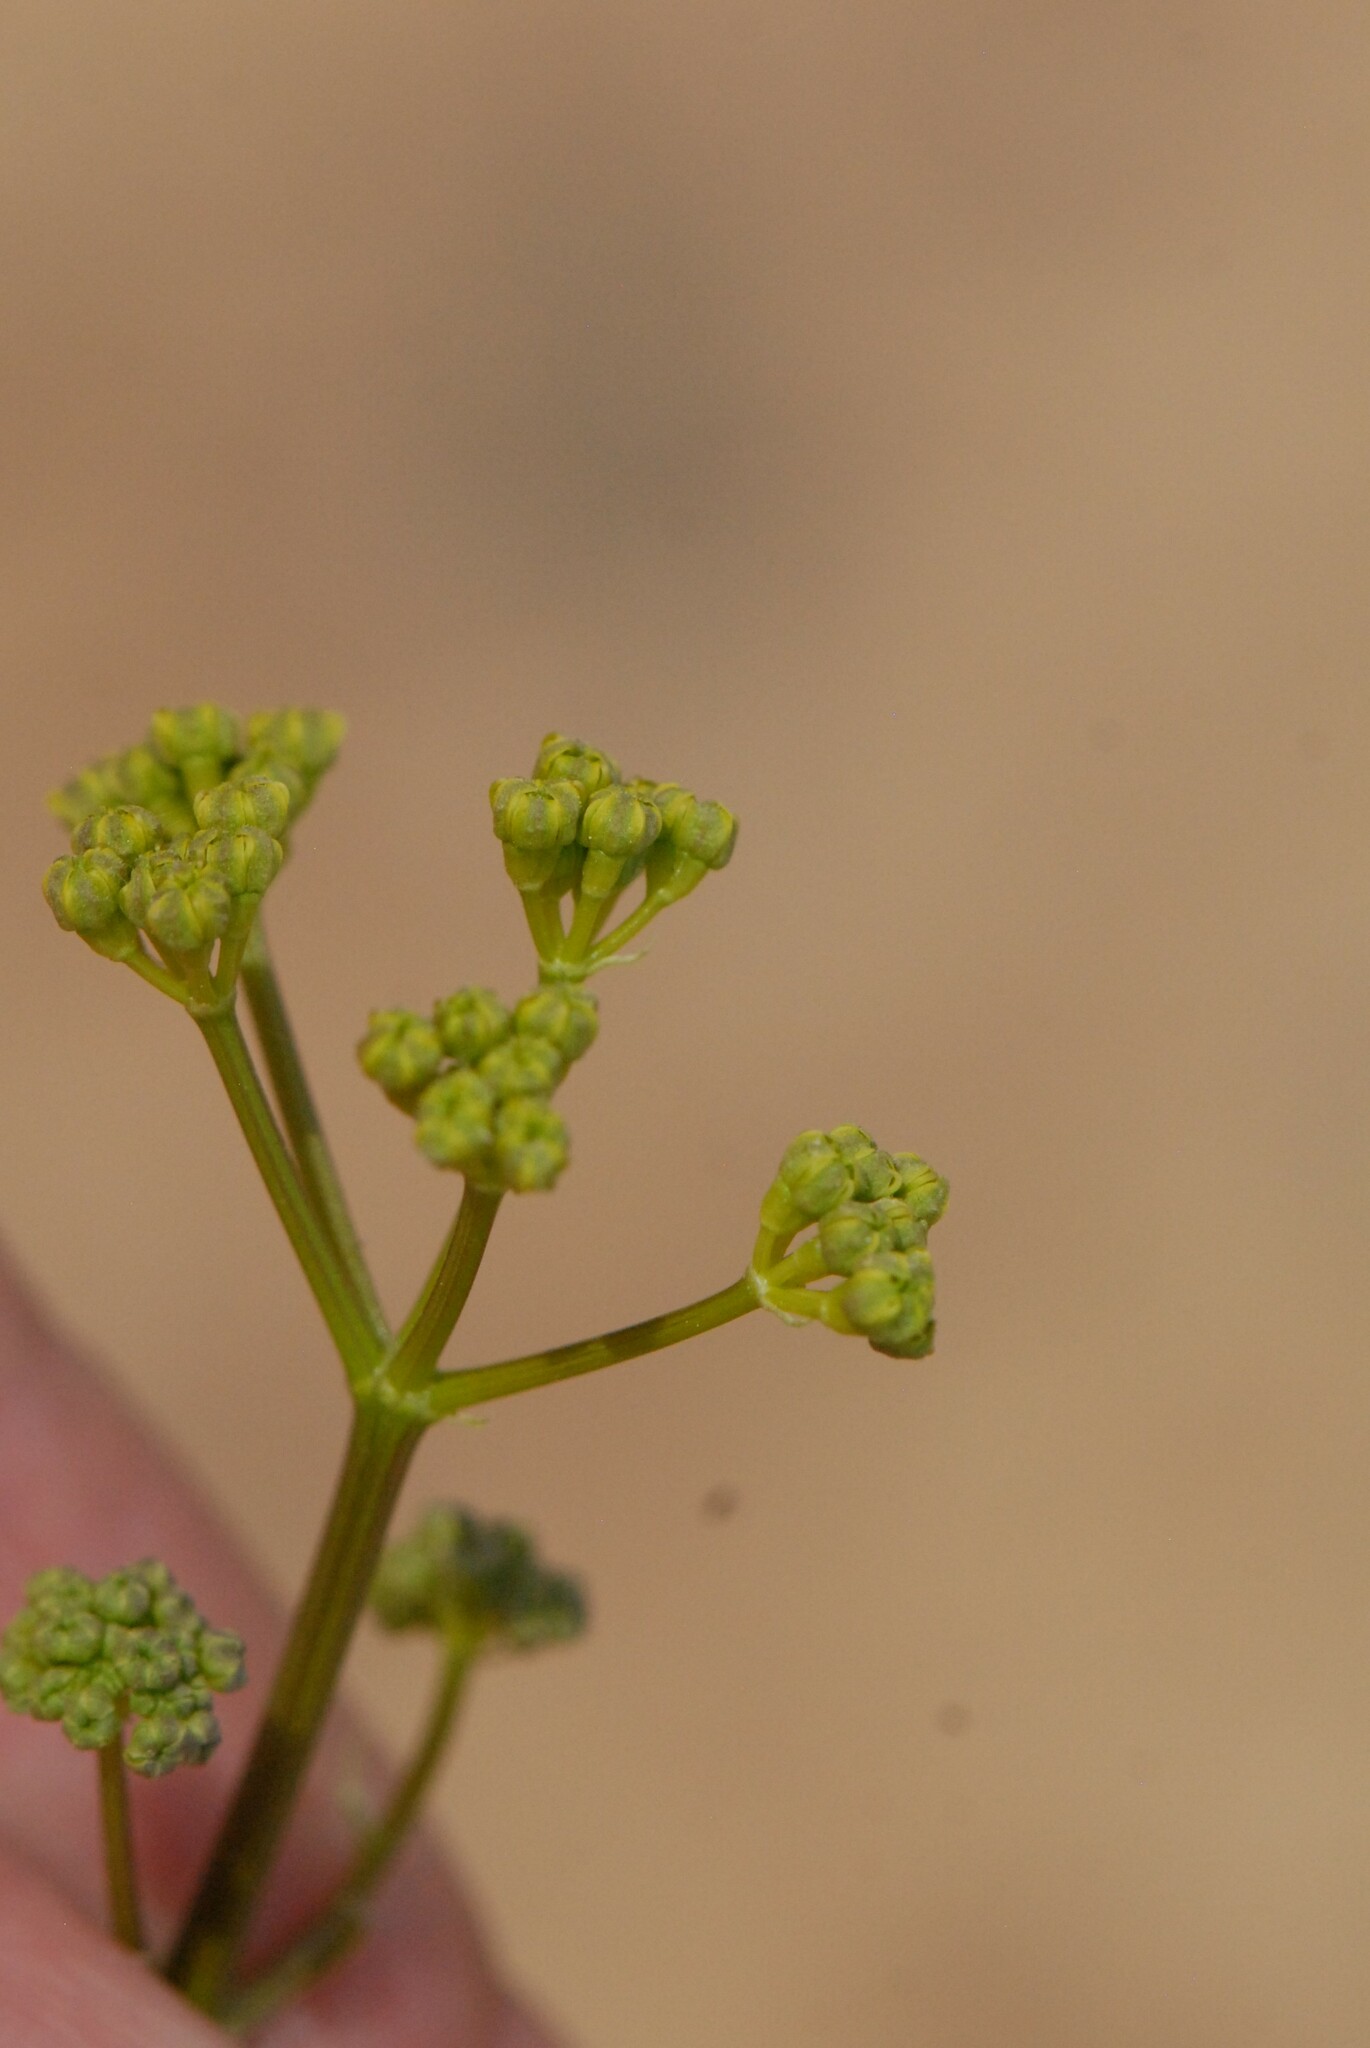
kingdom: Plantae
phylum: Tracheophyta
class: Magnoliopsida
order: Apiales
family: Apiaceae
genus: Prangos
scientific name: Prangos odontalgica
